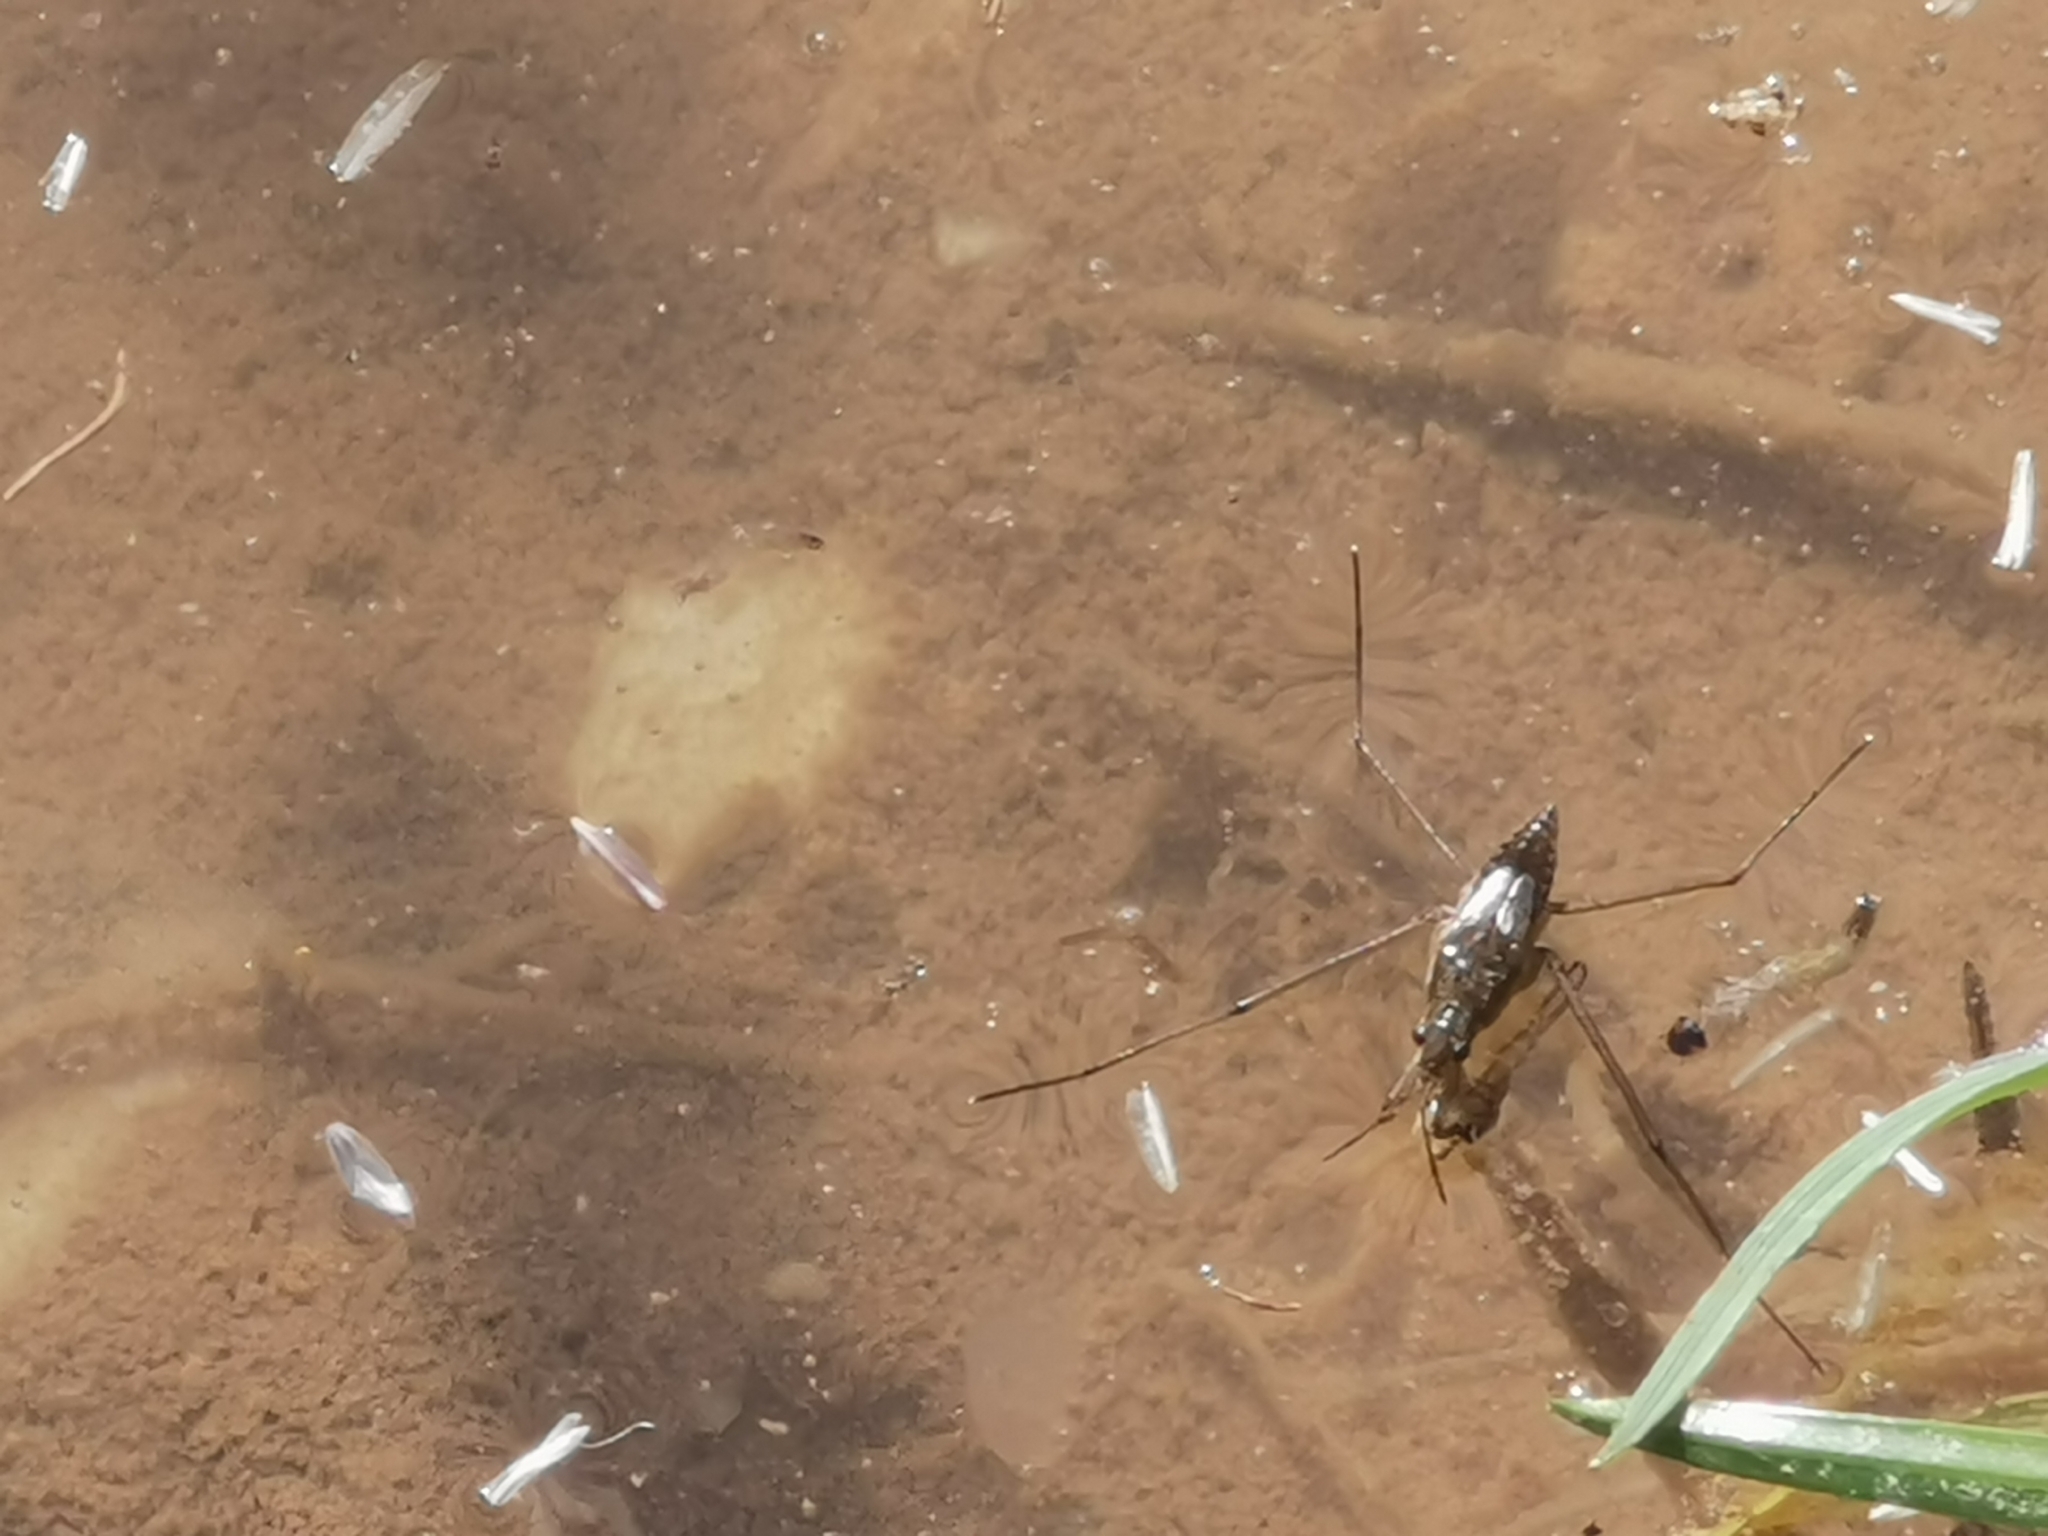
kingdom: Animalia
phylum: Arthropoda
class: Insecta
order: Hemiptera
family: Gerridae
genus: Gerris
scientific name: Gerris
